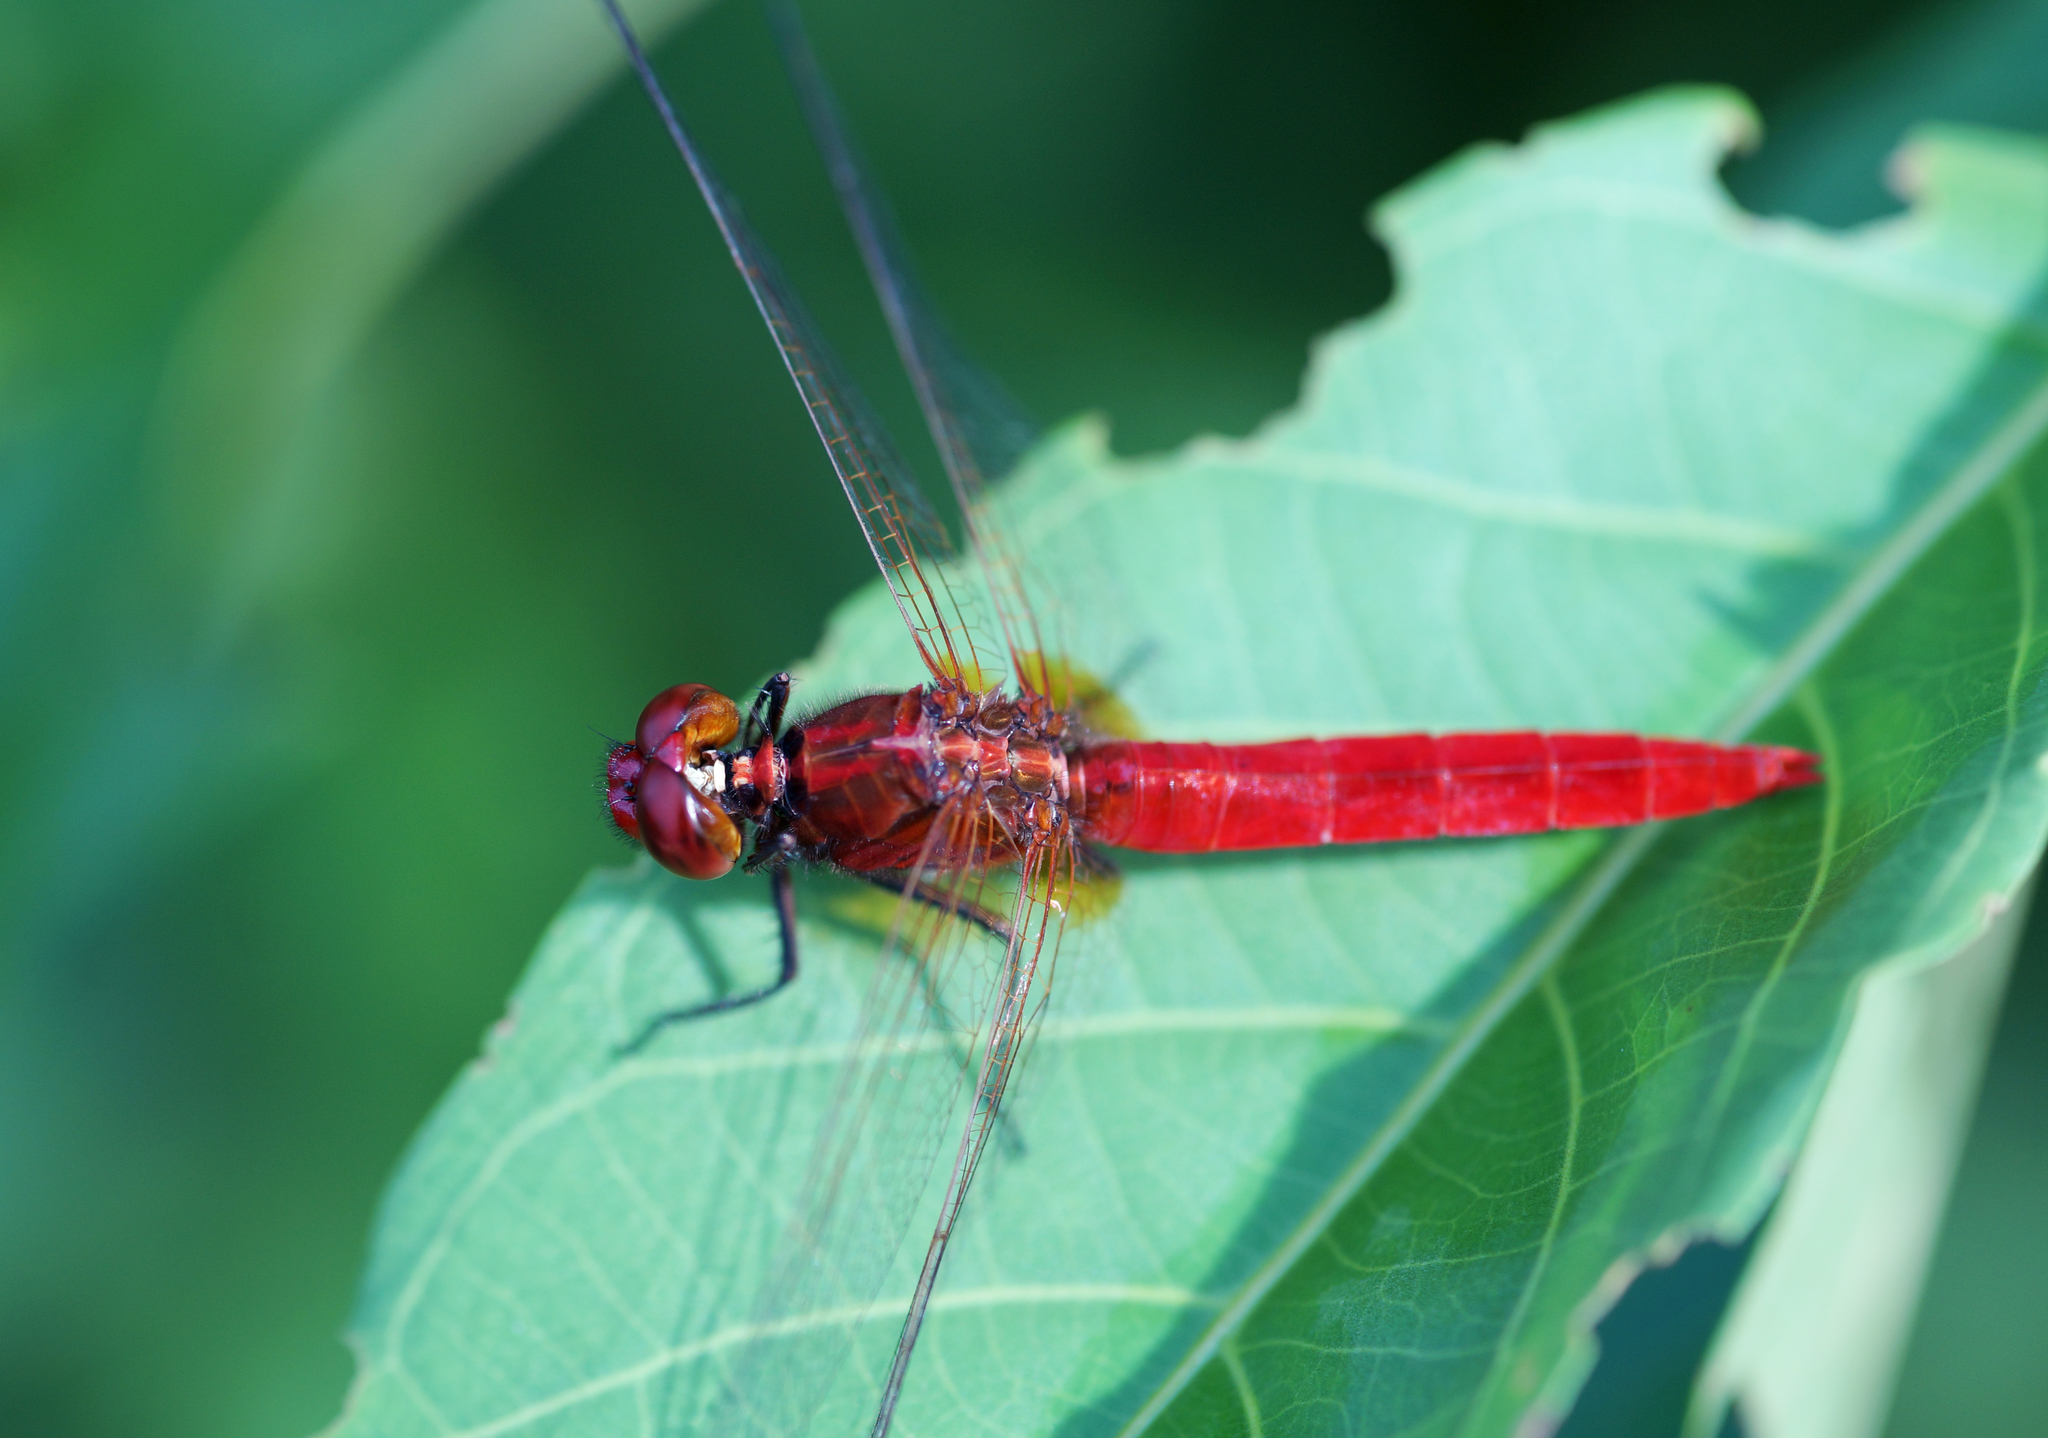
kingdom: Animalia
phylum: Arthropoda
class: Insecta
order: Odonata
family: Libellulidae
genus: Rhodothemis
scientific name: Rhodothemis rufa
